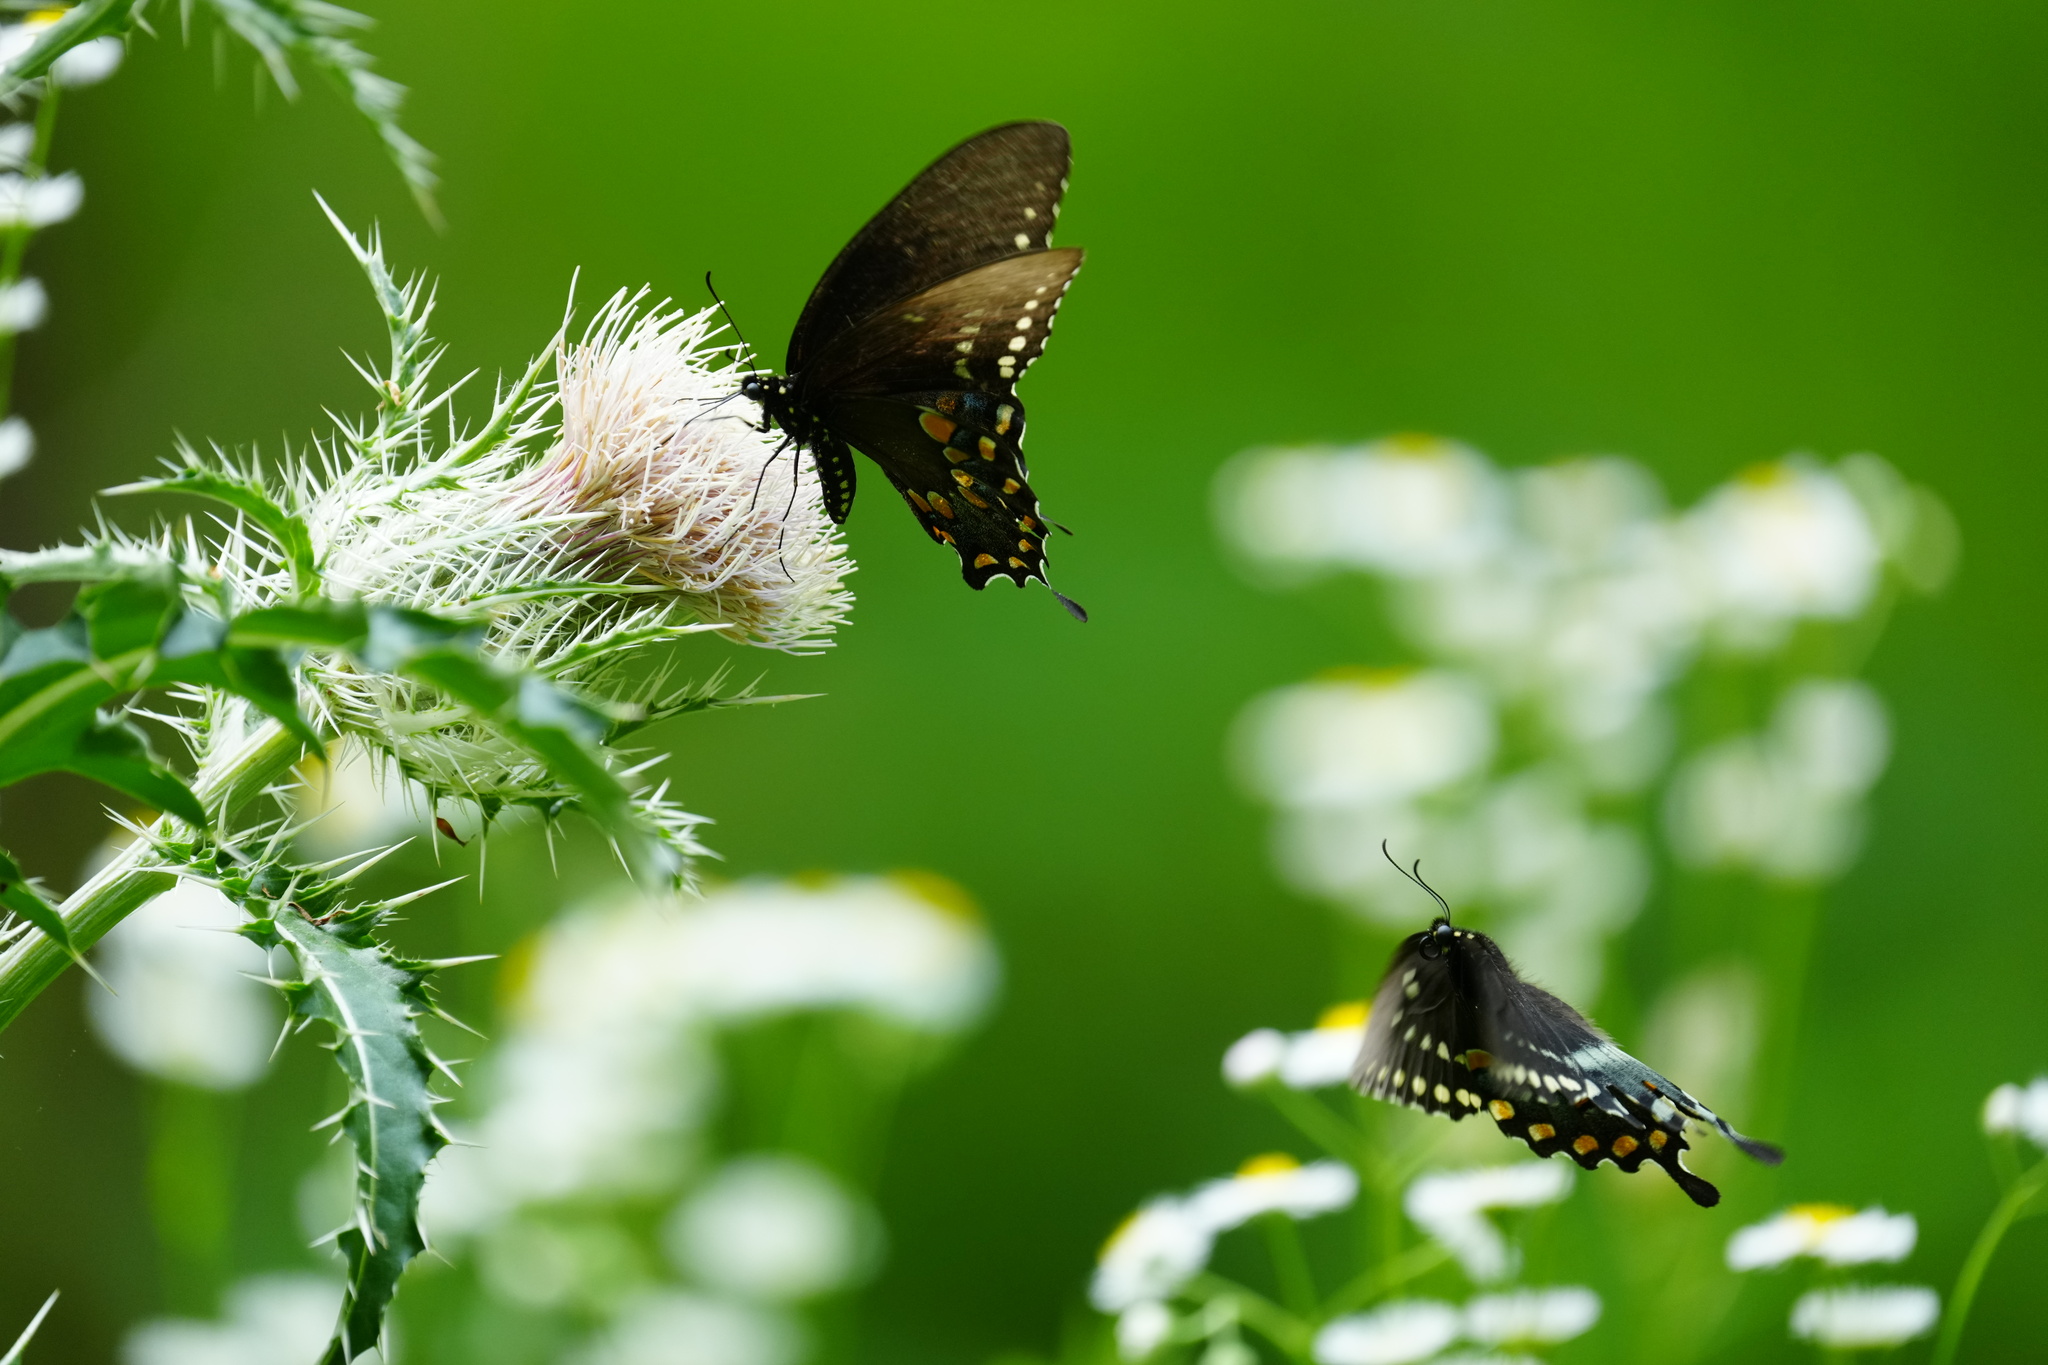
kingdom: Animalia
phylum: Arthropoda
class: Insecta
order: Lepidoptera
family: Papilionidae
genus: Papilio
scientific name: Papilio troilus
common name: Spicebush swallowtail
